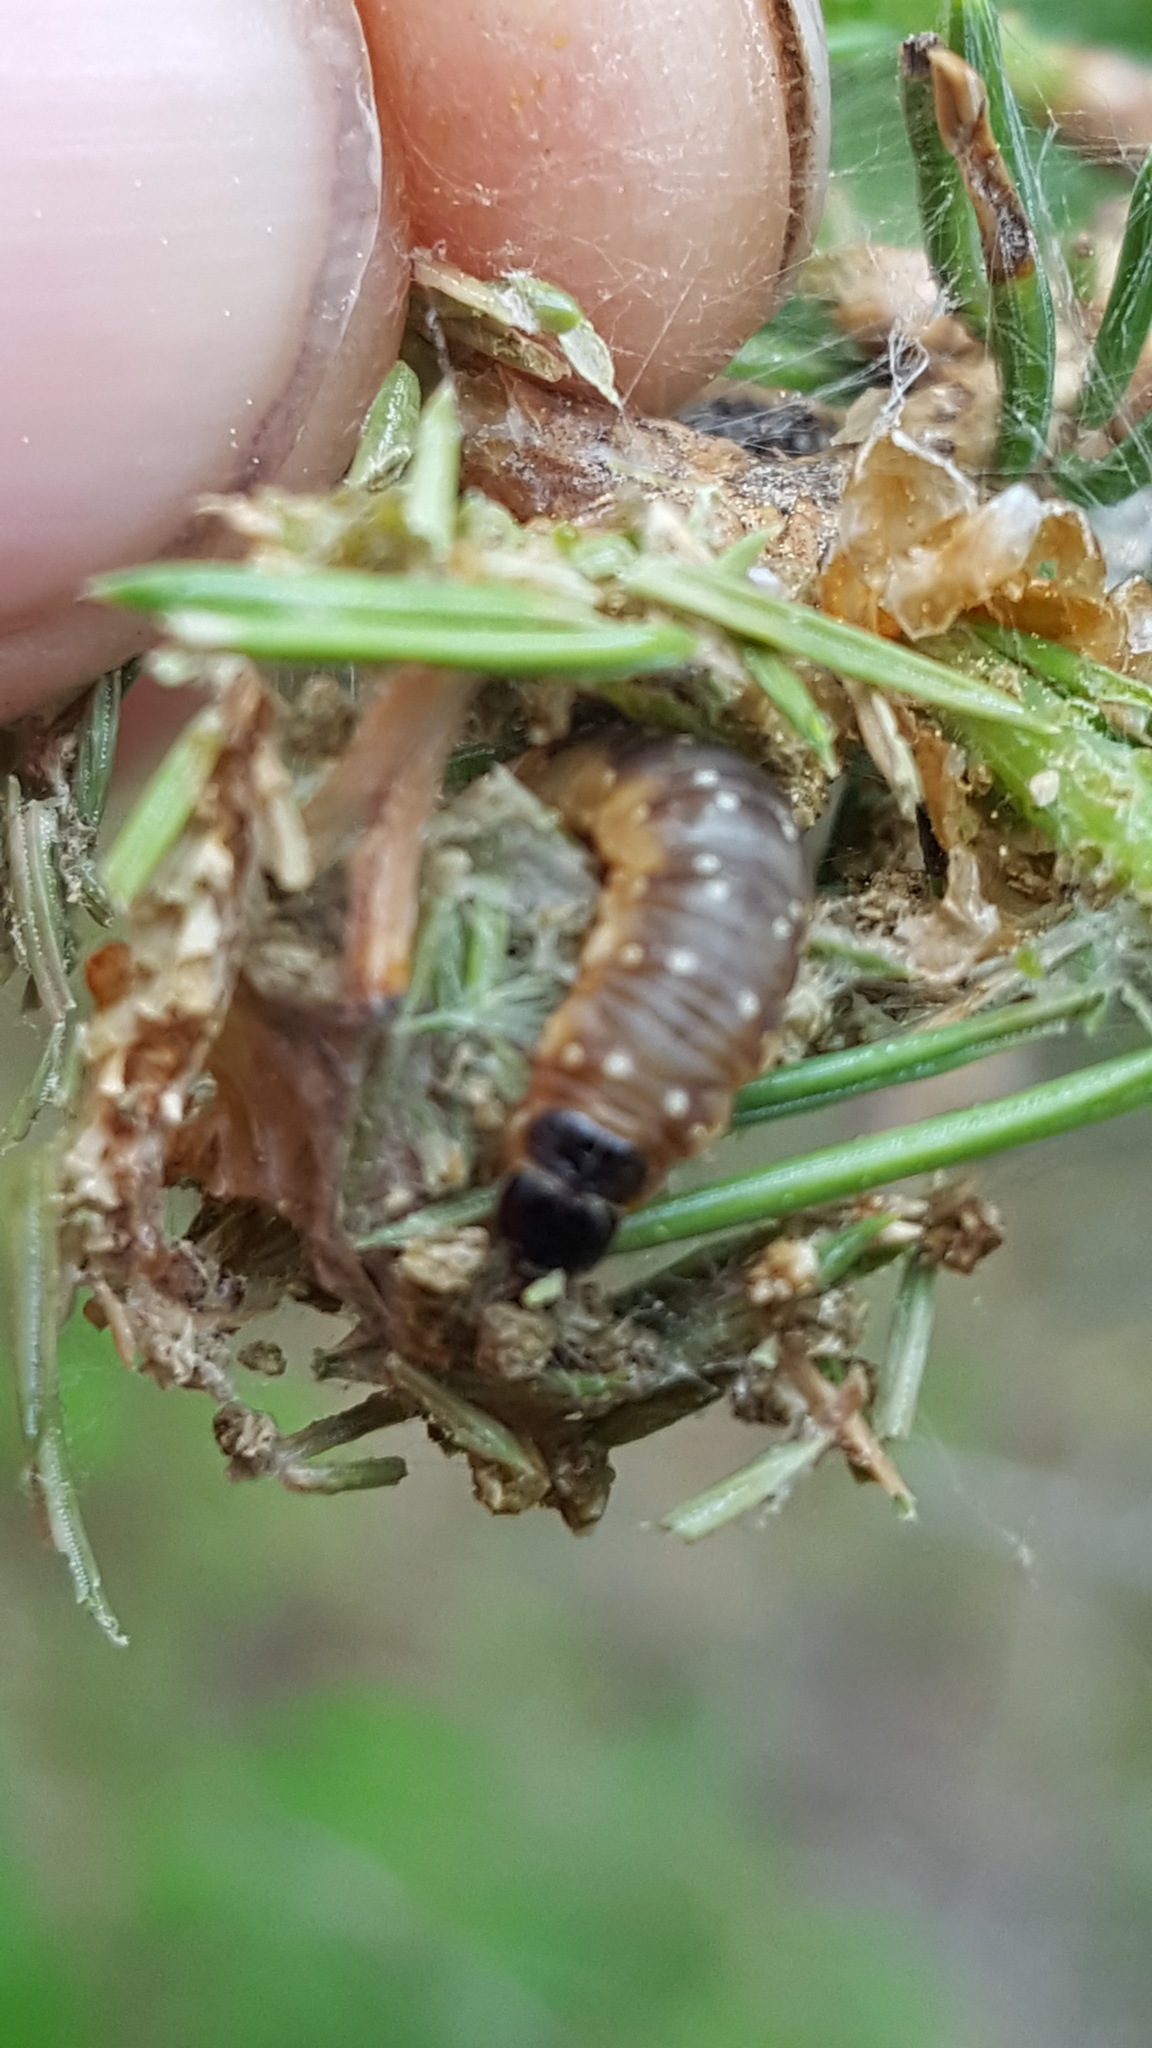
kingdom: Animalia
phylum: Arthropoda
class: Insecta
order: Lepidoptera
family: Tortricidae
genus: Choristoneura
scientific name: Choristoneura fumiferana
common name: Spruce budworm
